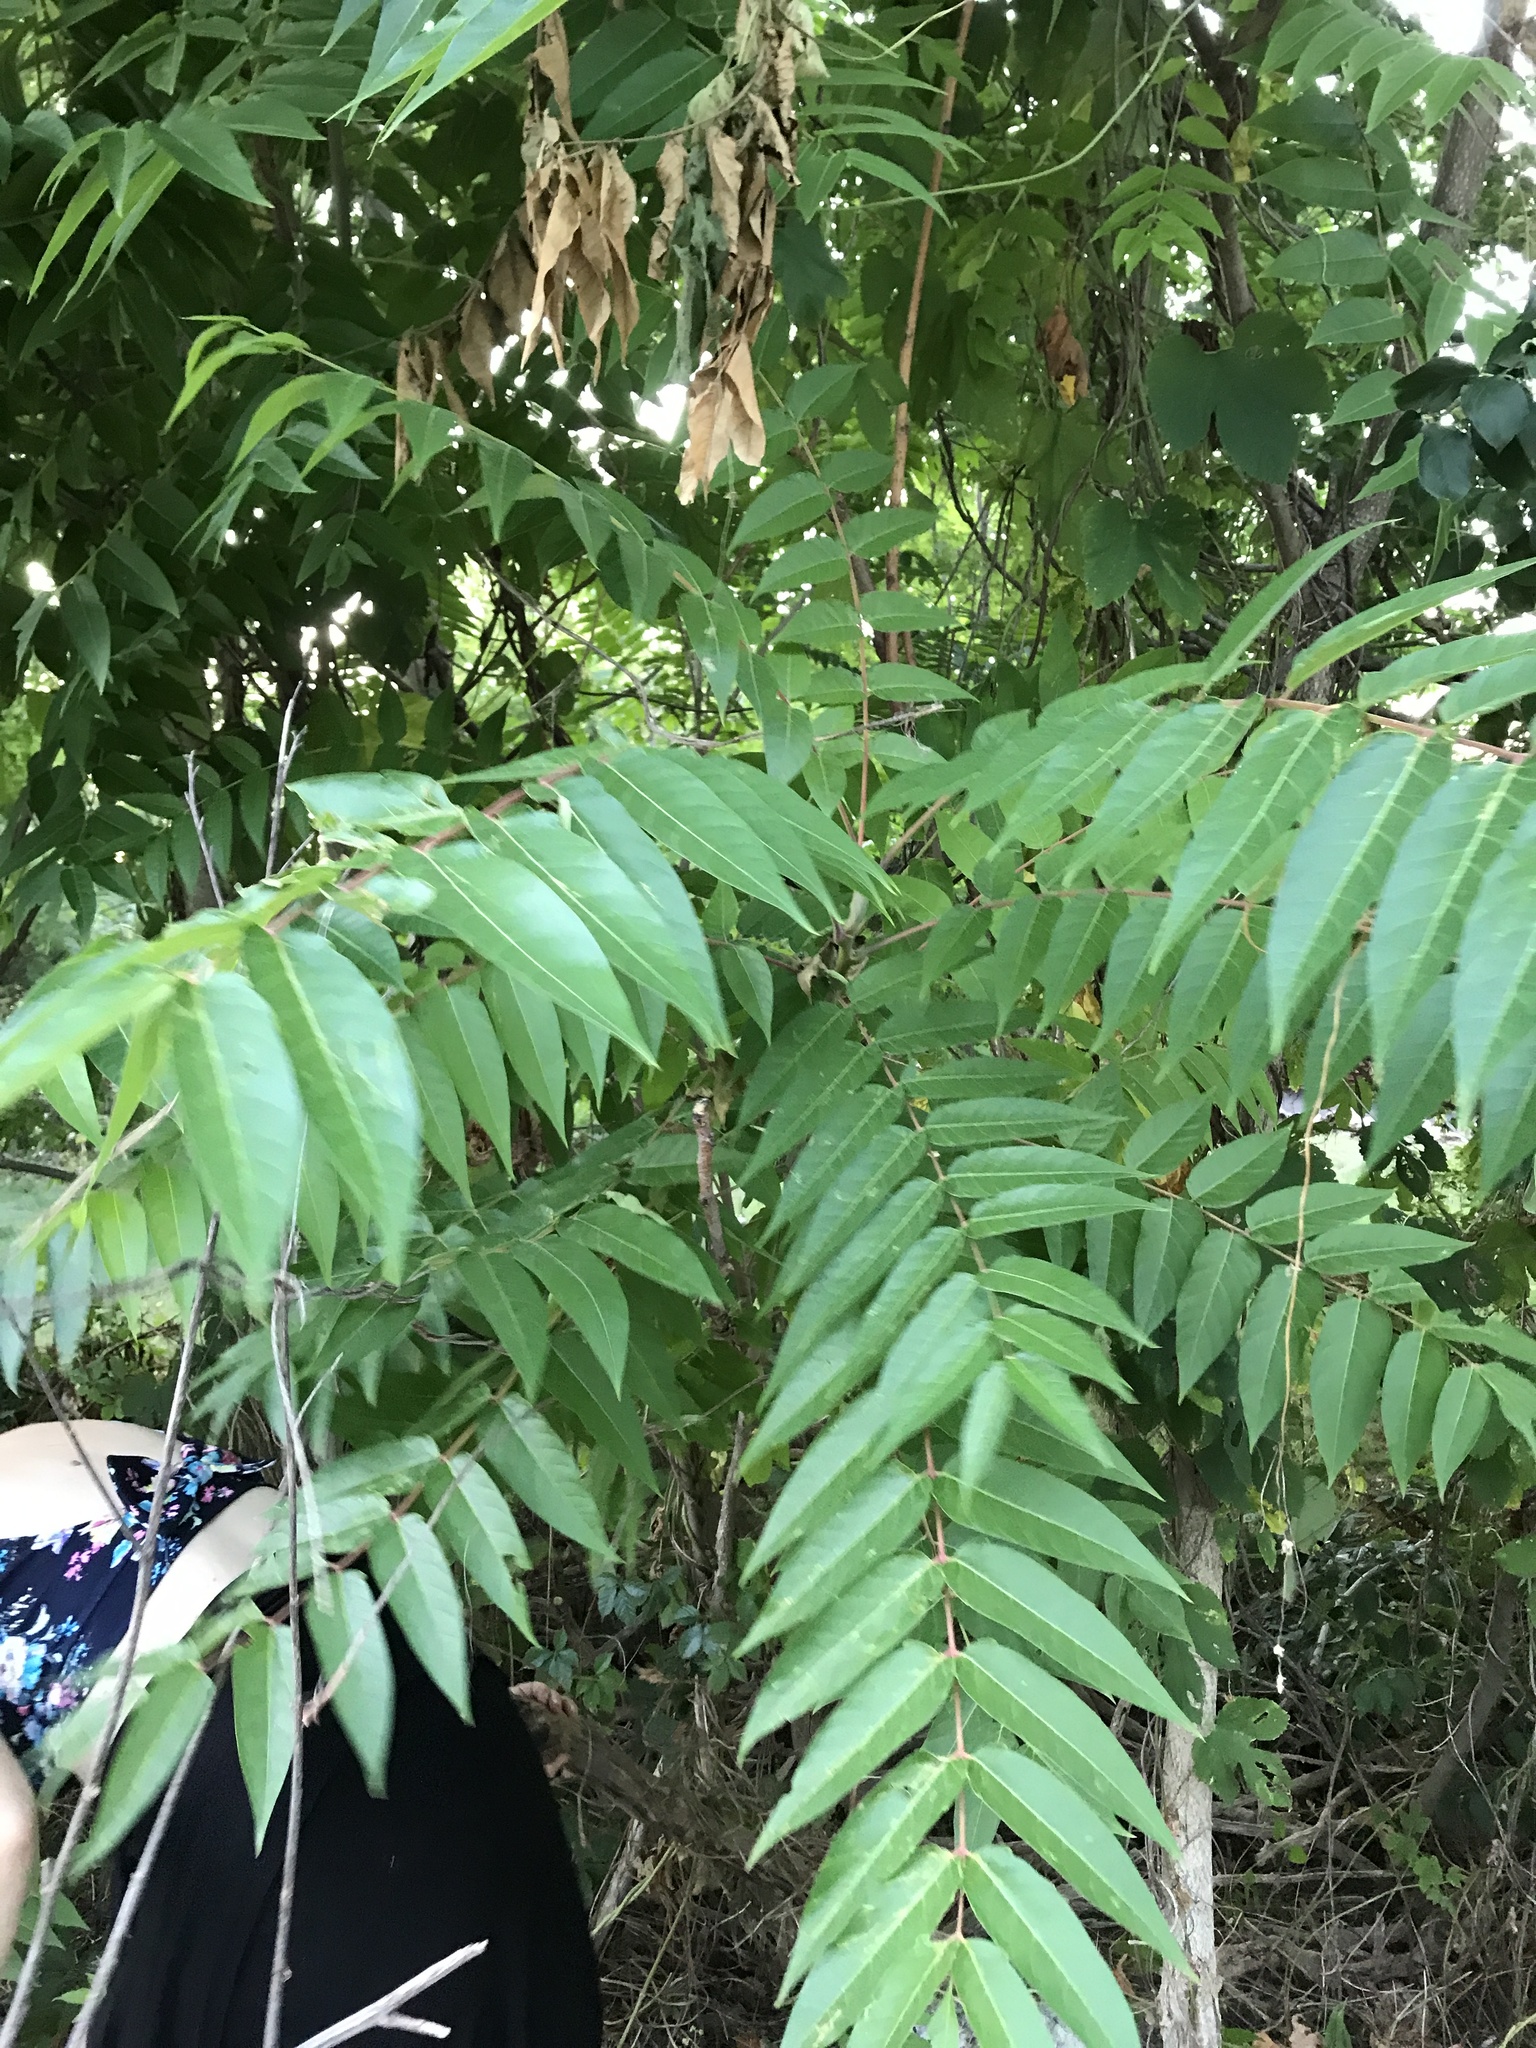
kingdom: Plantae
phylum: Tracheophyta
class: Magnoliopsida
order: Sapindales
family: Simaroubaceae
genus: Ailanthus
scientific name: Ailanthus altissima
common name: Tree-of-heaven
